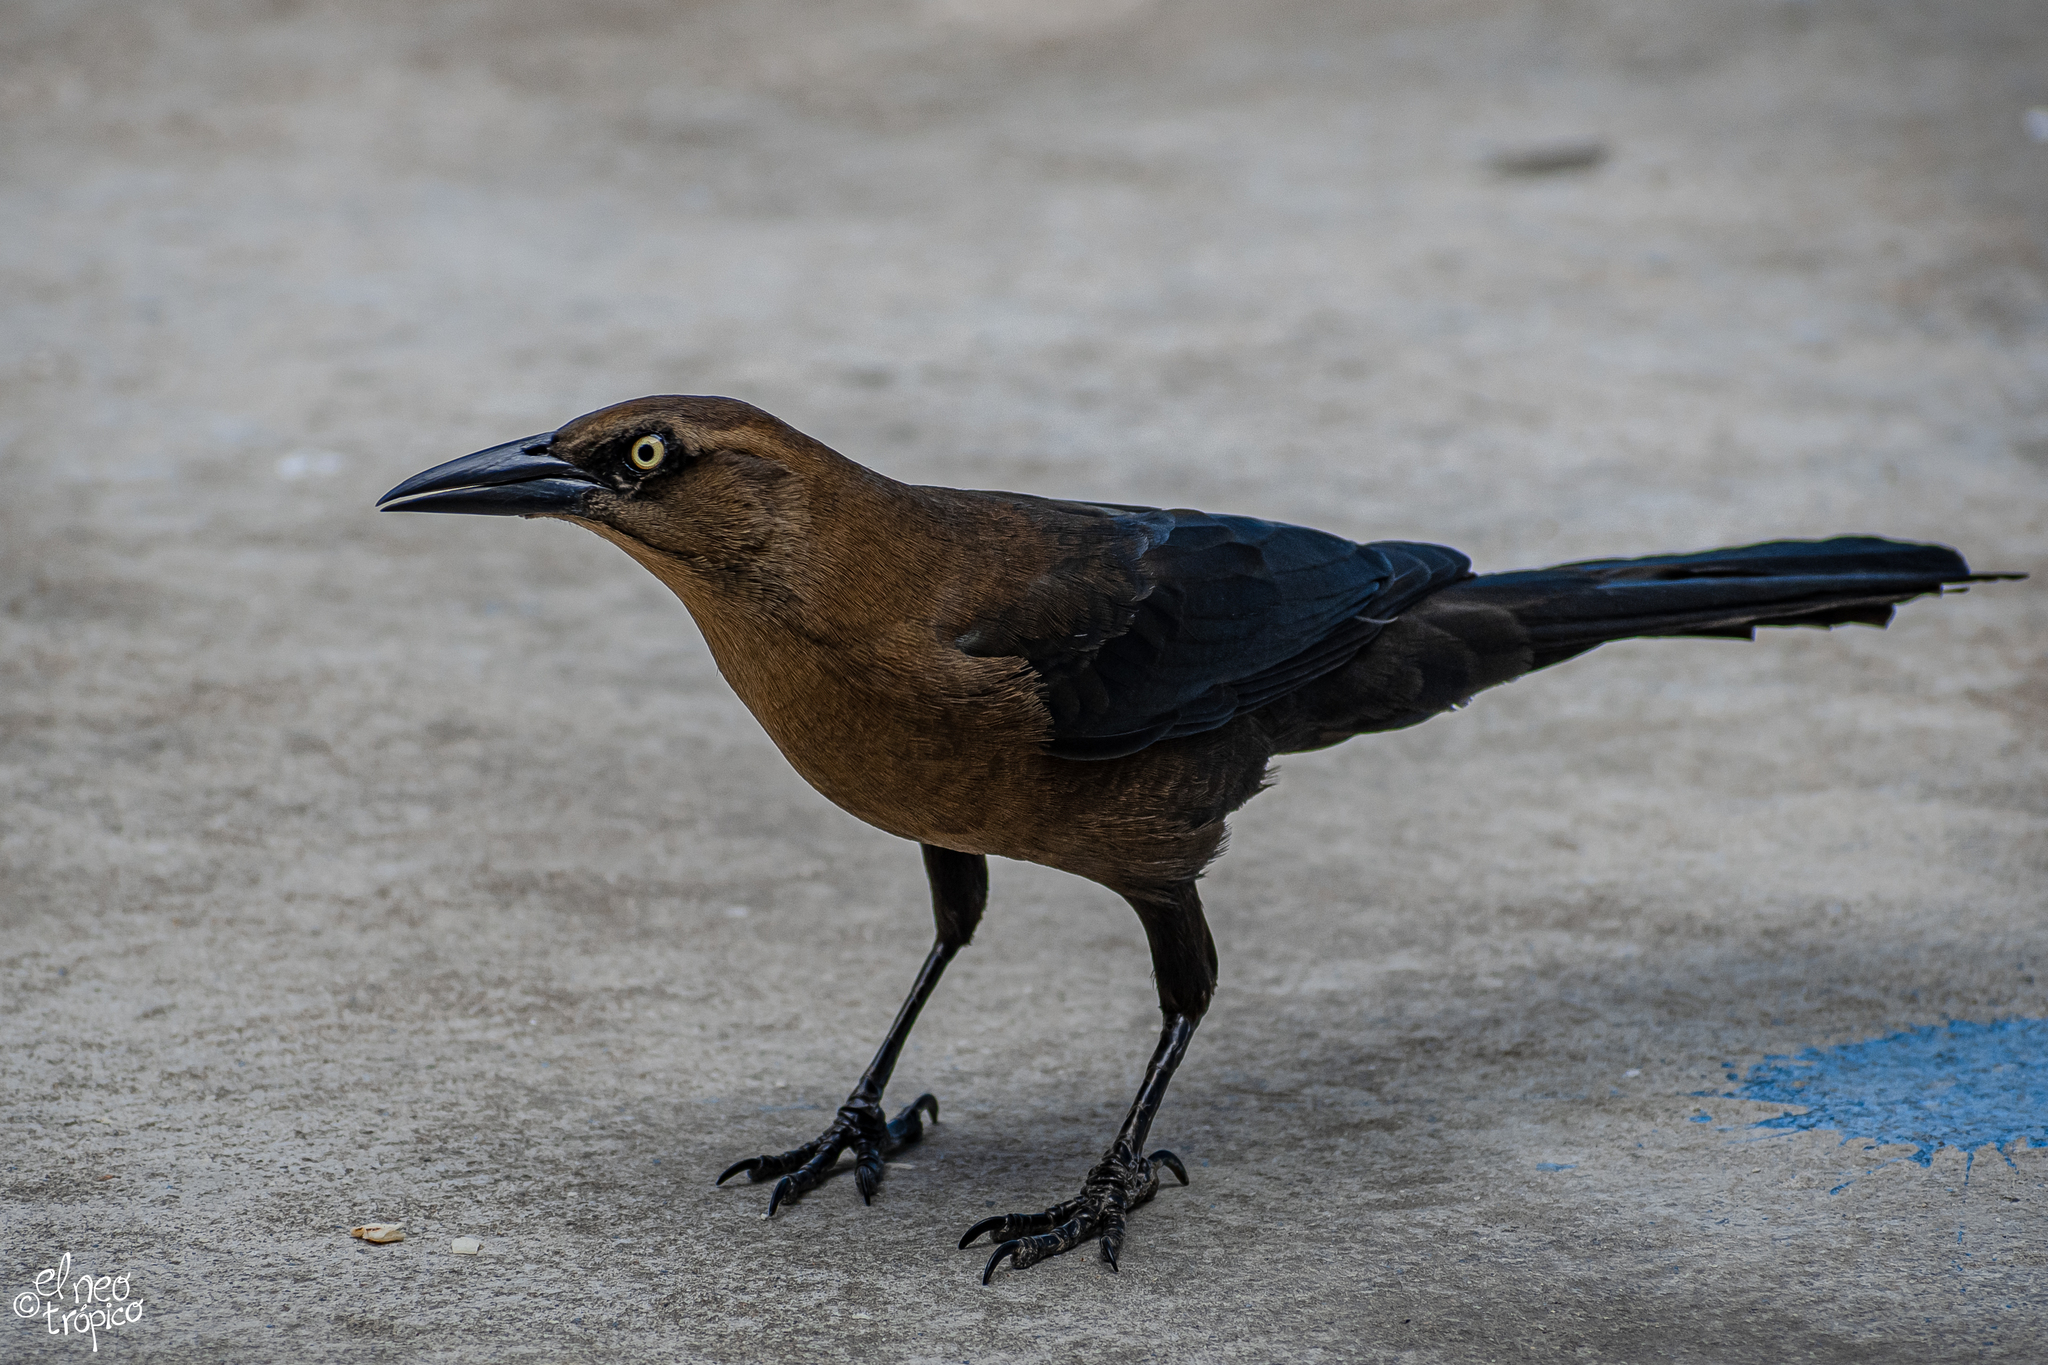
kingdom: Animalia
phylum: Chordata
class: Aves
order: Passeriformes
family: Icteridae
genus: Quiscalus
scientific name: Quiscalus mexicanus
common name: Great-tailed grackle
